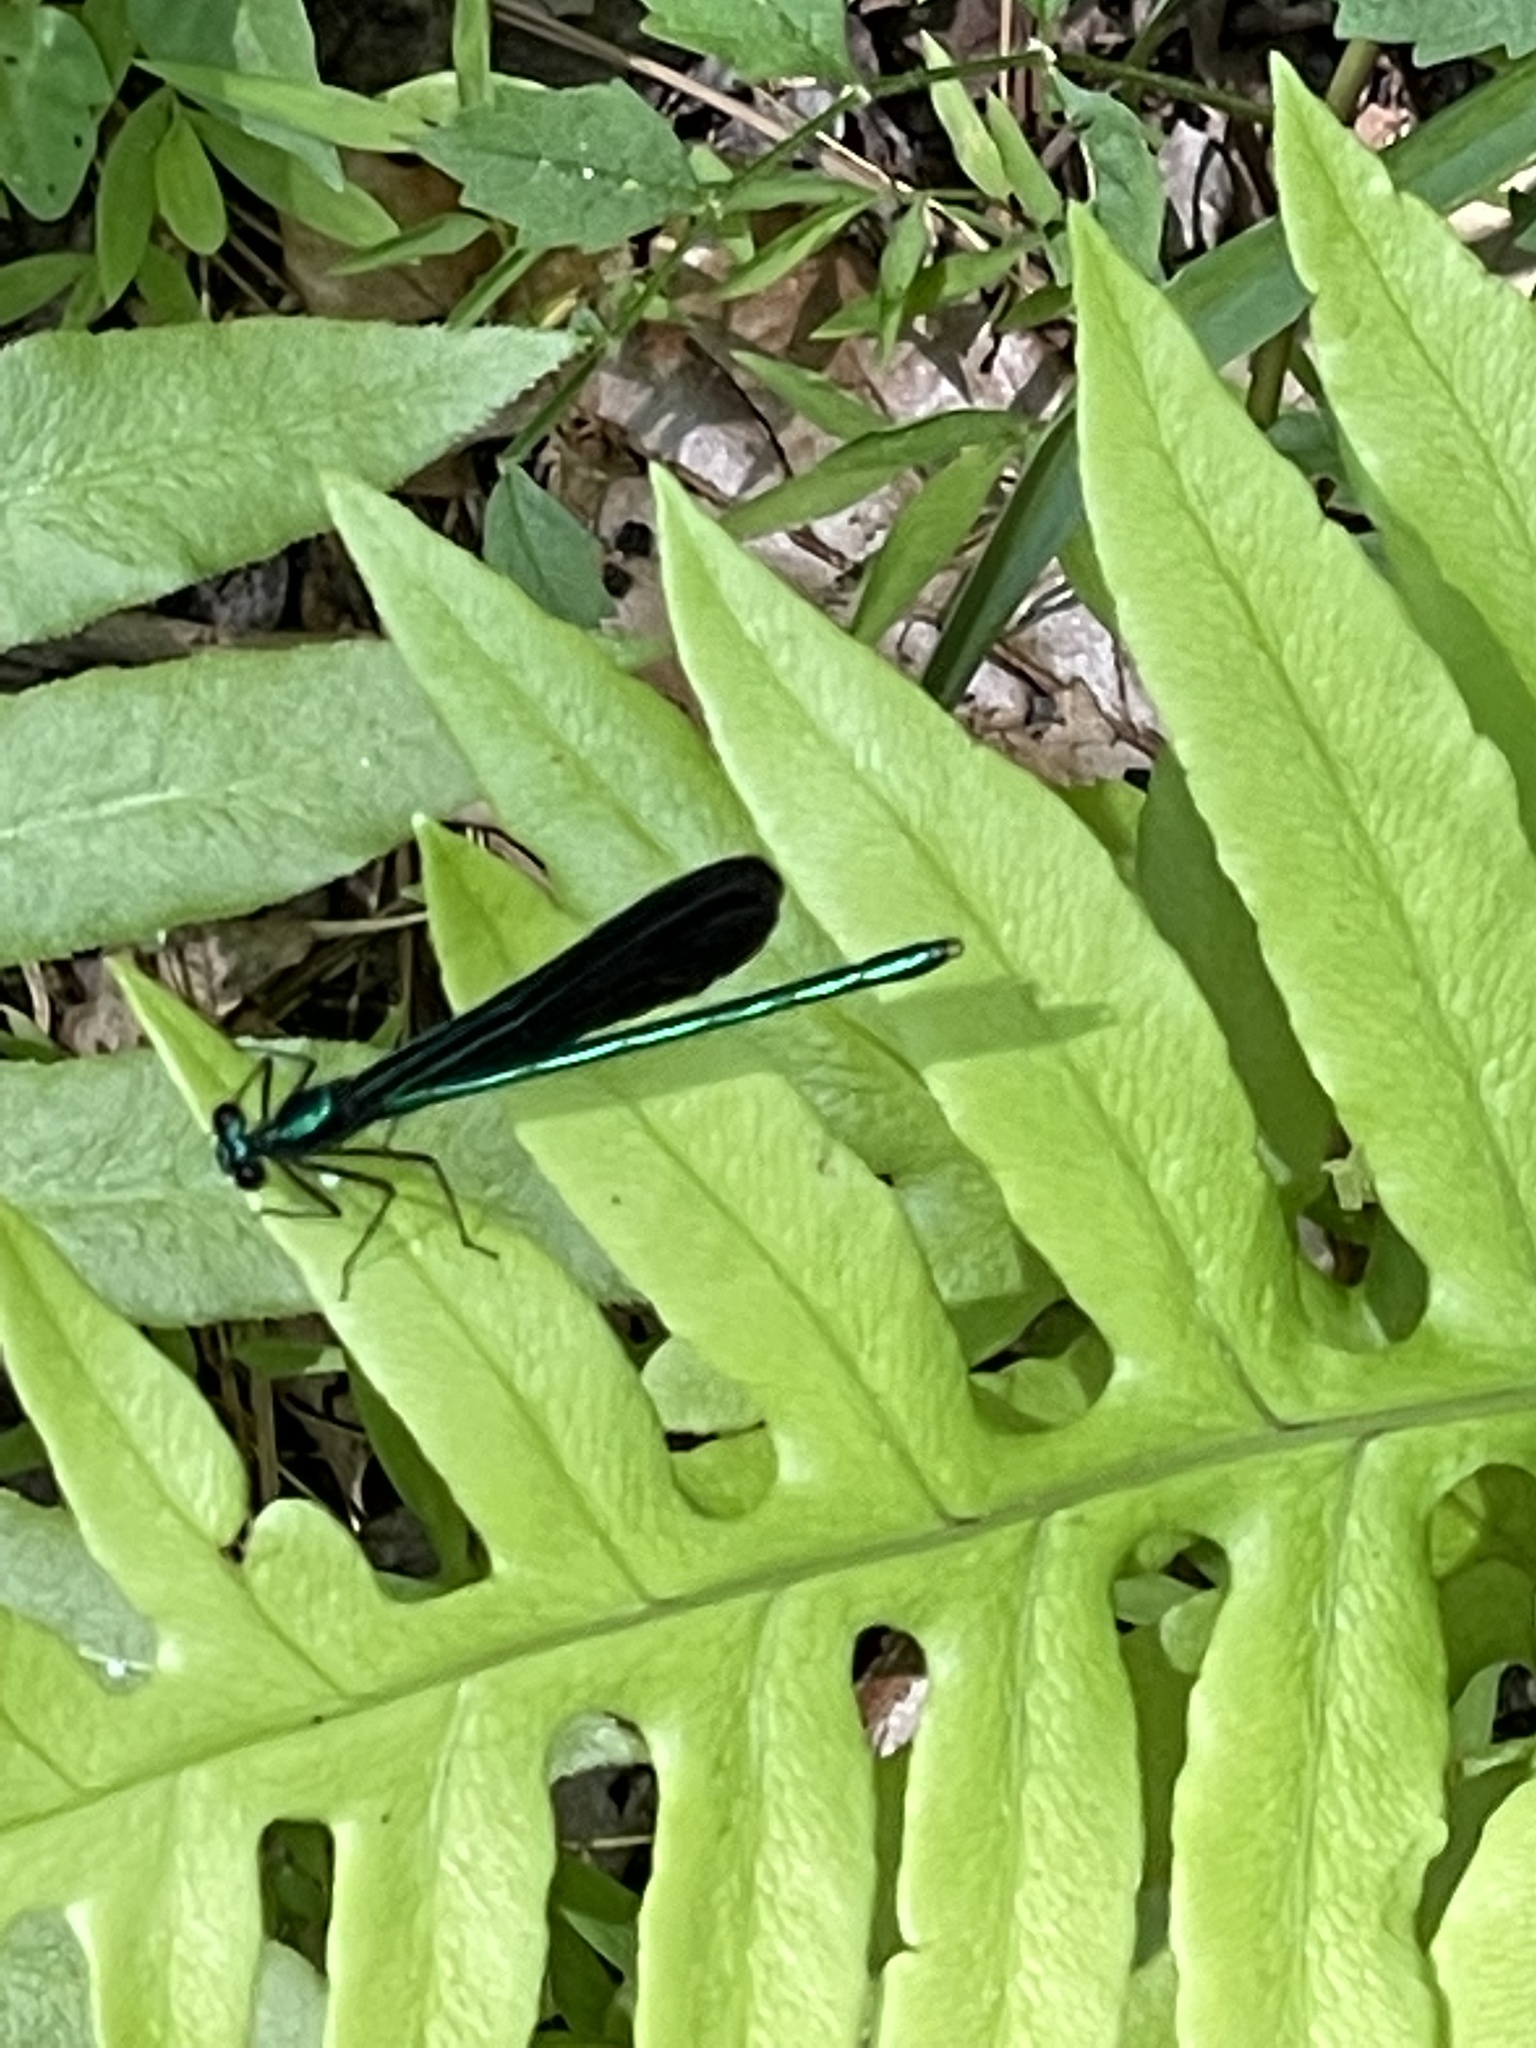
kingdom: Animalia
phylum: Arthropoda
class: Insecta
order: Odonata
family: Calopterygidae
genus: Calopteryx
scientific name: Calopteryx maculata
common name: Ebony jewelwing
